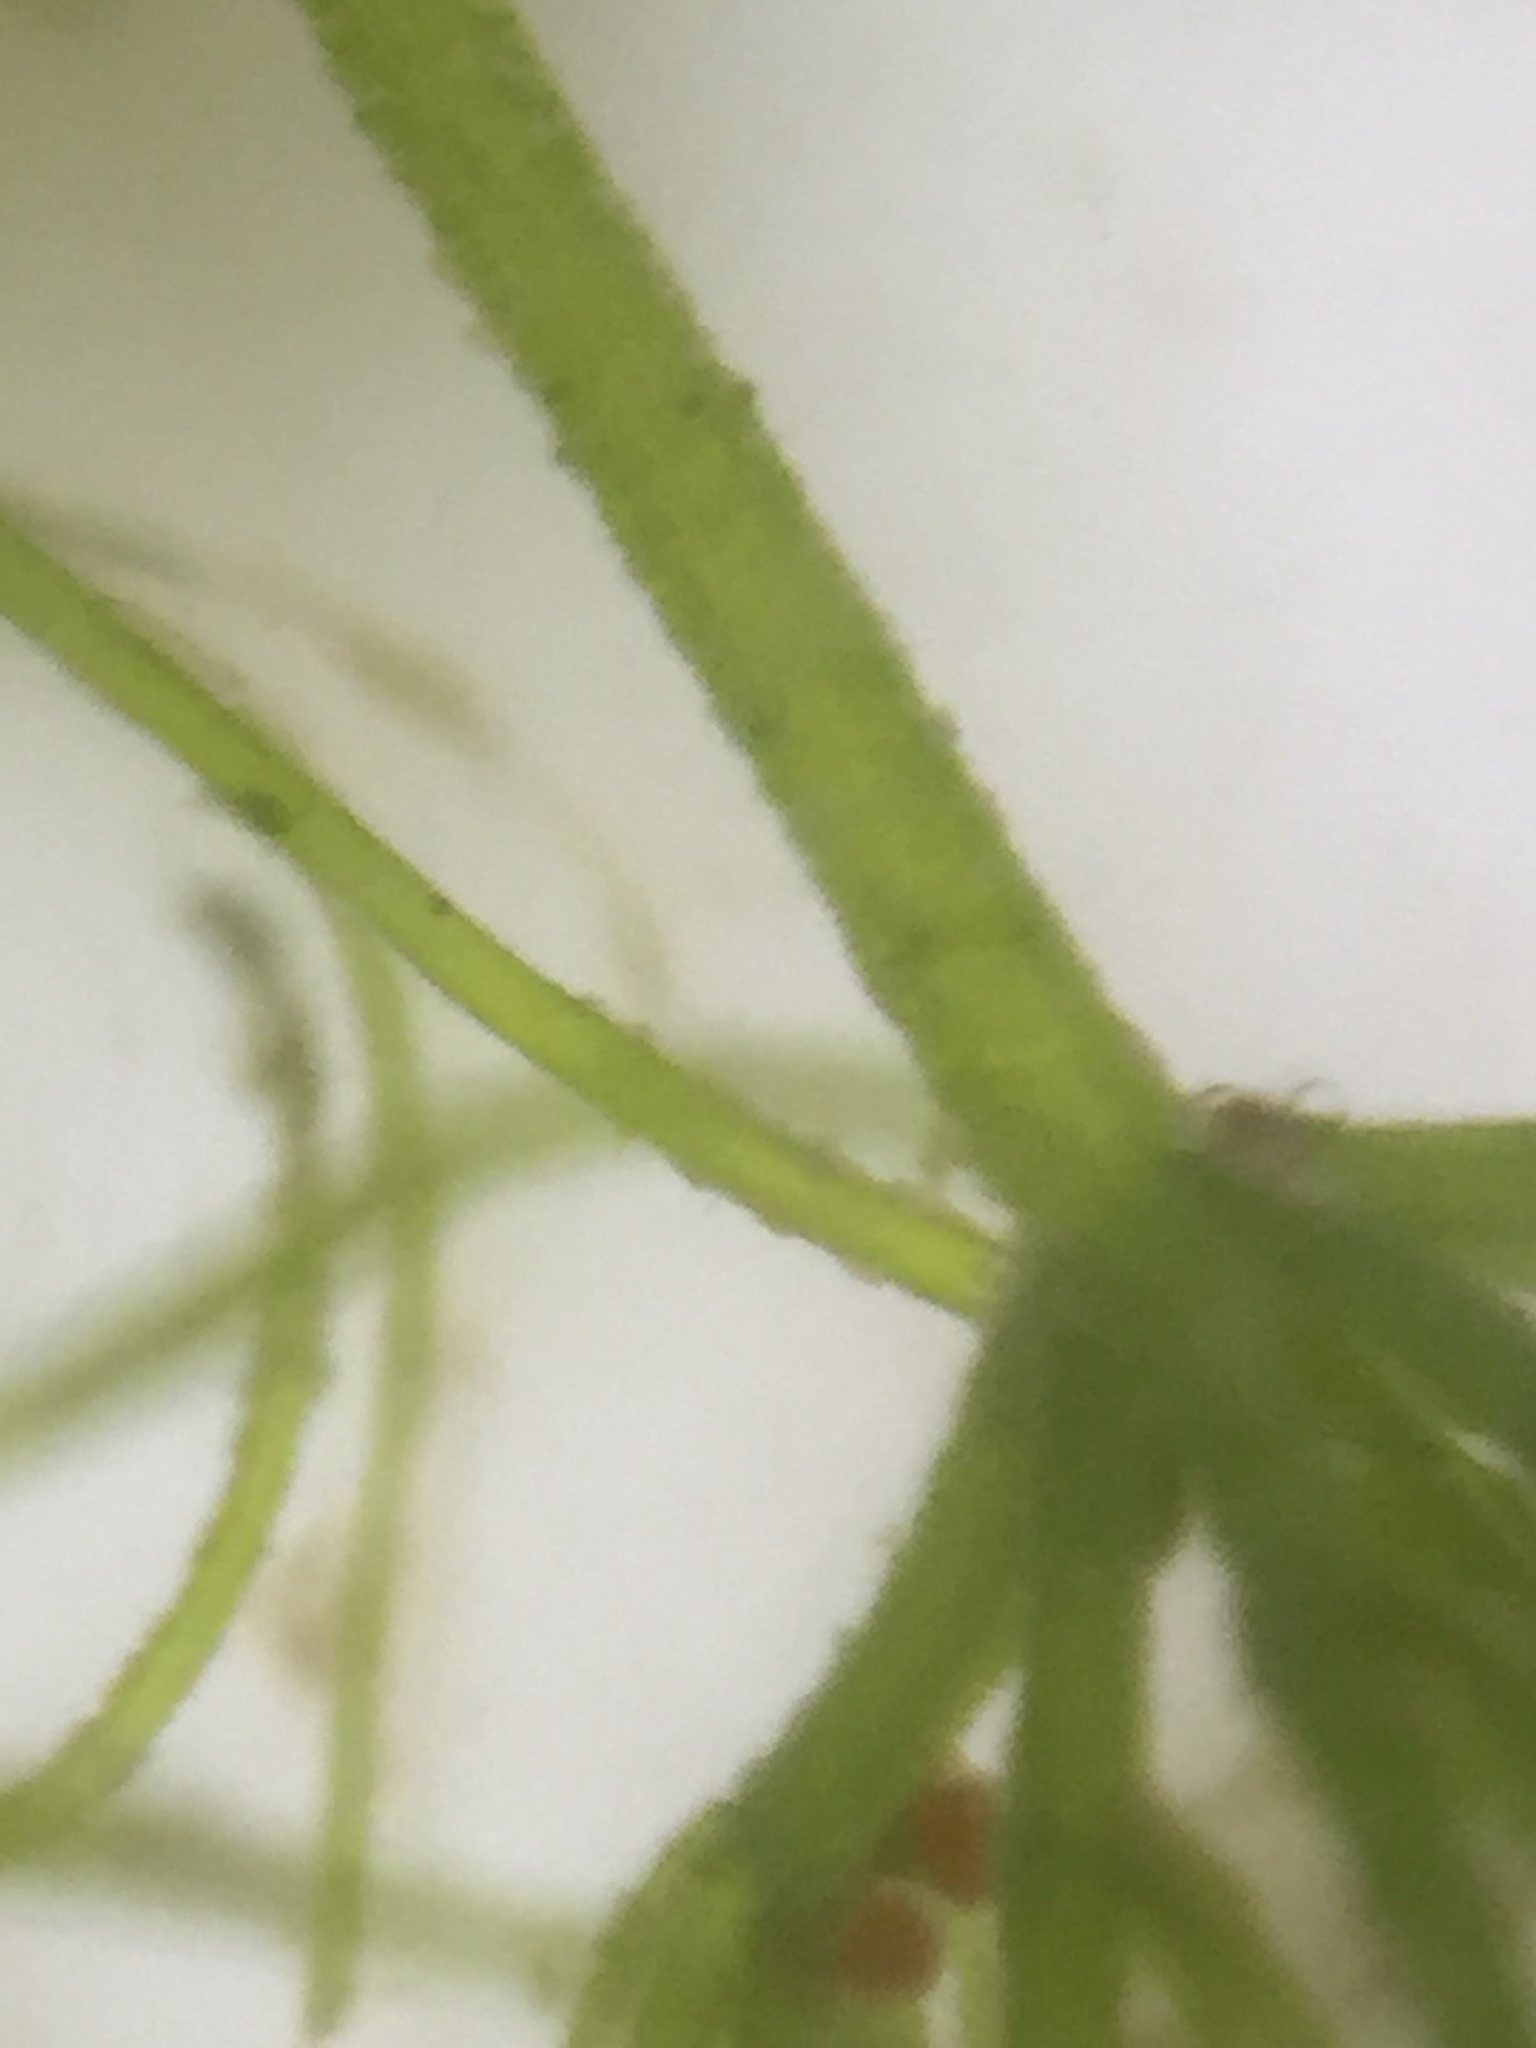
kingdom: Plantae
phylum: Charophyta
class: Charophyceae
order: Charales
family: Characeae
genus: Chara
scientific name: Chara vulgaris
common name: Common stonewort
